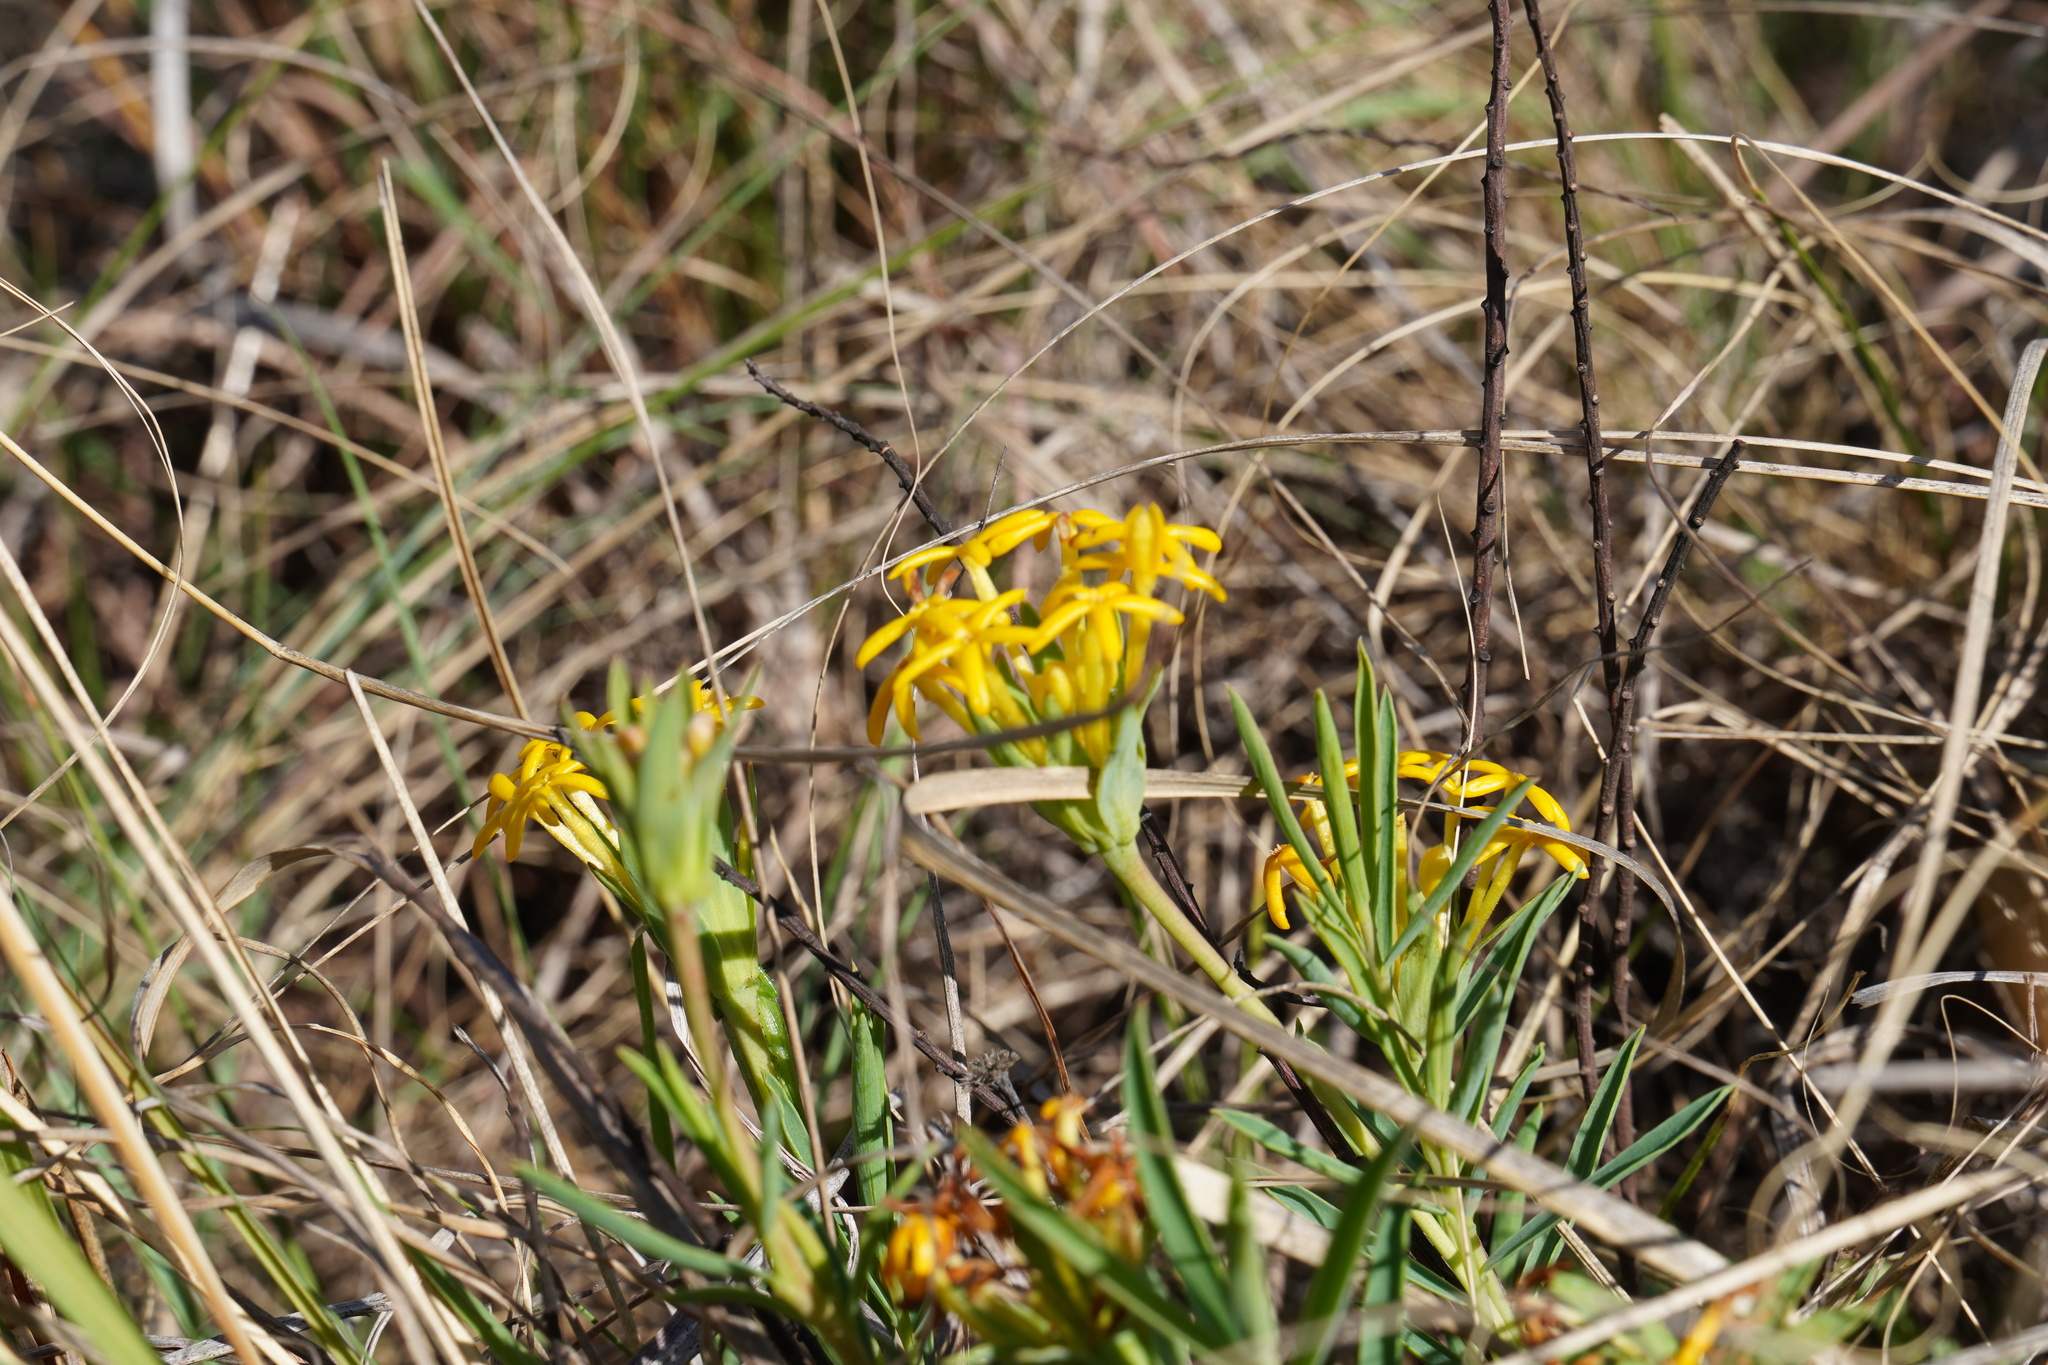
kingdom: Plantae
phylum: Tracheophyta
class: Magnoliopsida
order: Malvales
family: Thymelaeaceae
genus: Gnidia
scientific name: Gnidia capitata
